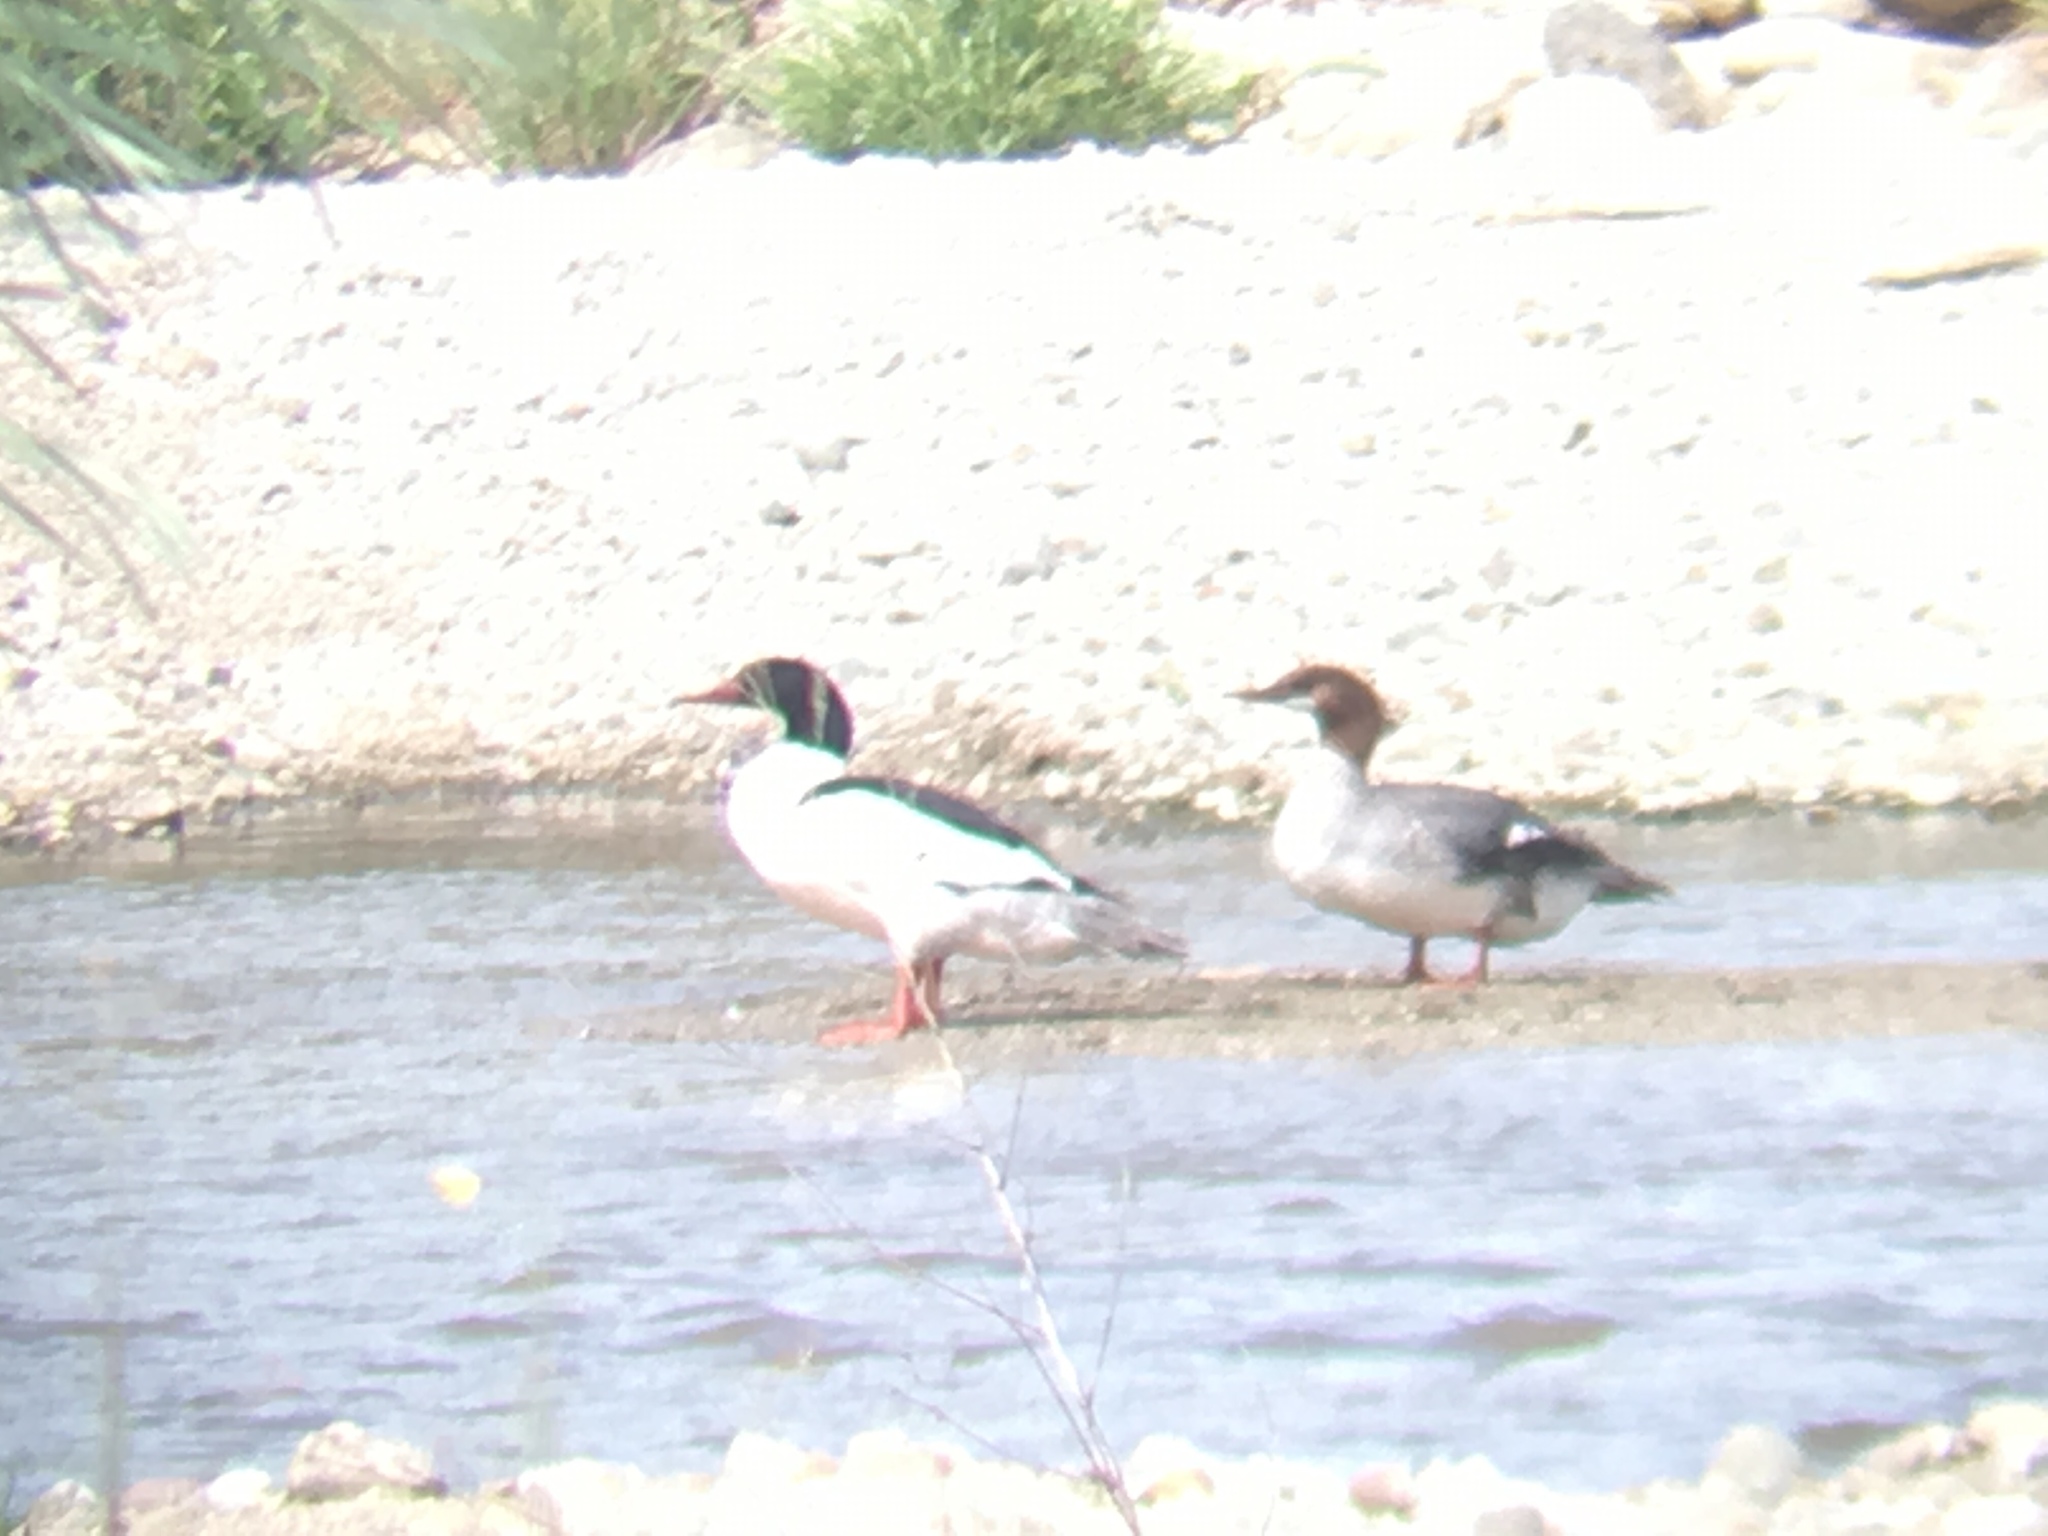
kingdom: Animalia
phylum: Chordata
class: Aves
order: Anseriformes
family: Anatidae
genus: Mergus
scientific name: Mergus merganser
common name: Common merganser
